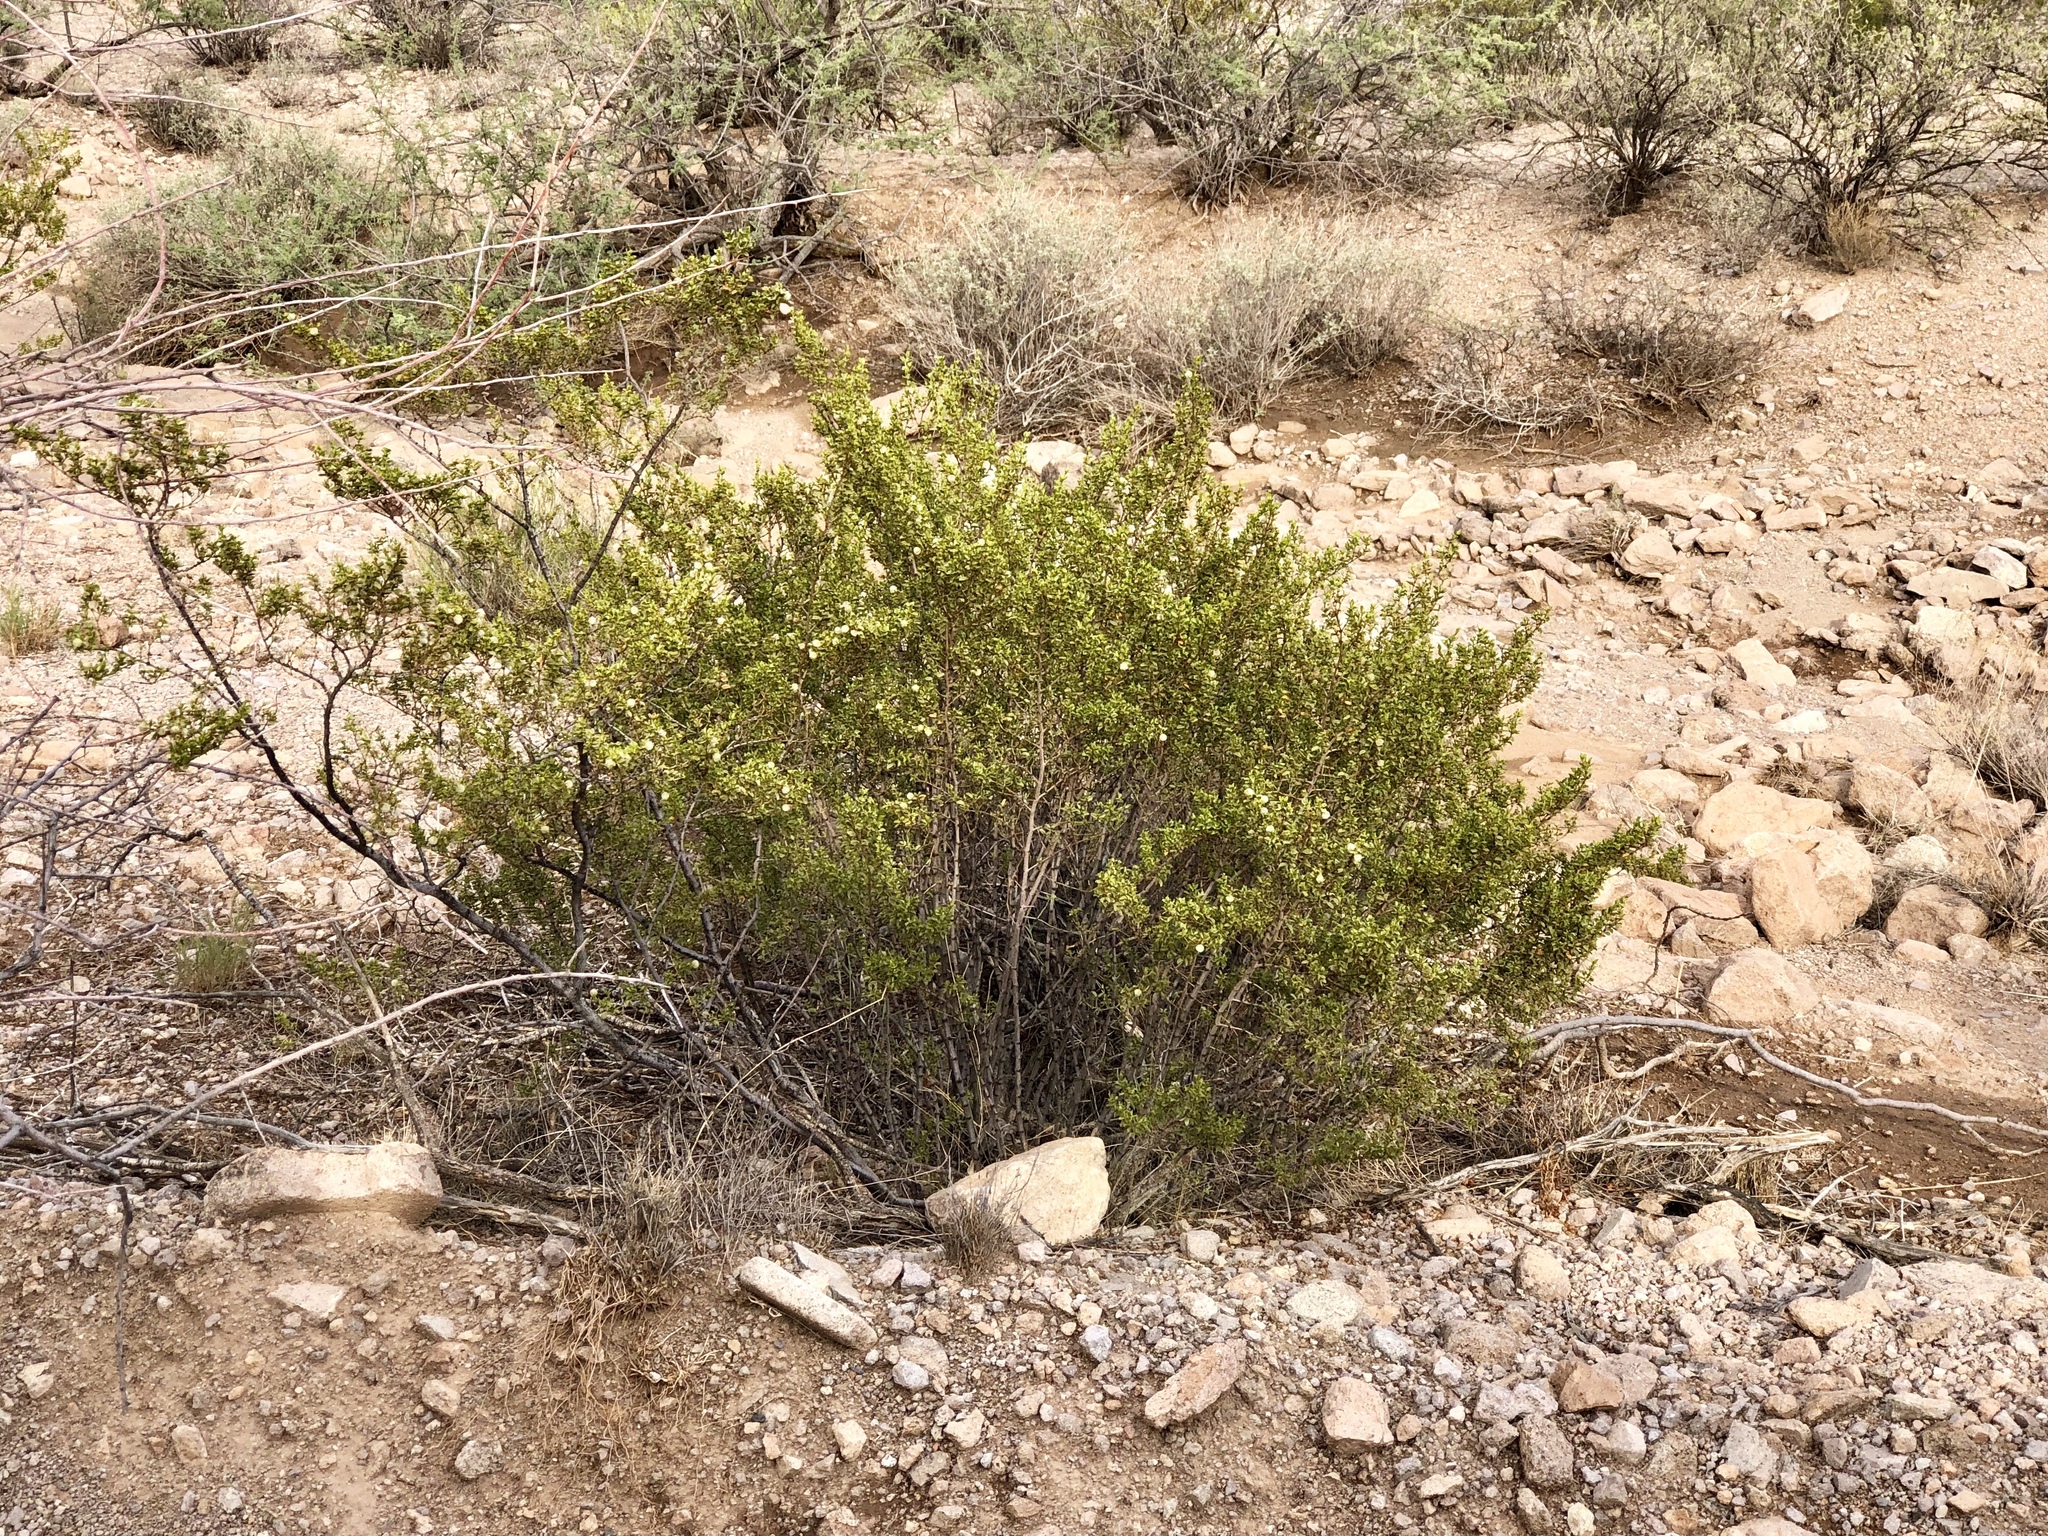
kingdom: Plantae
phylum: Tracheophyta
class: Magnoliopsida
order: Zygophyllales
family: Zygophyllaceae
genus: Larrea
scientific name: Larrea tridentata
